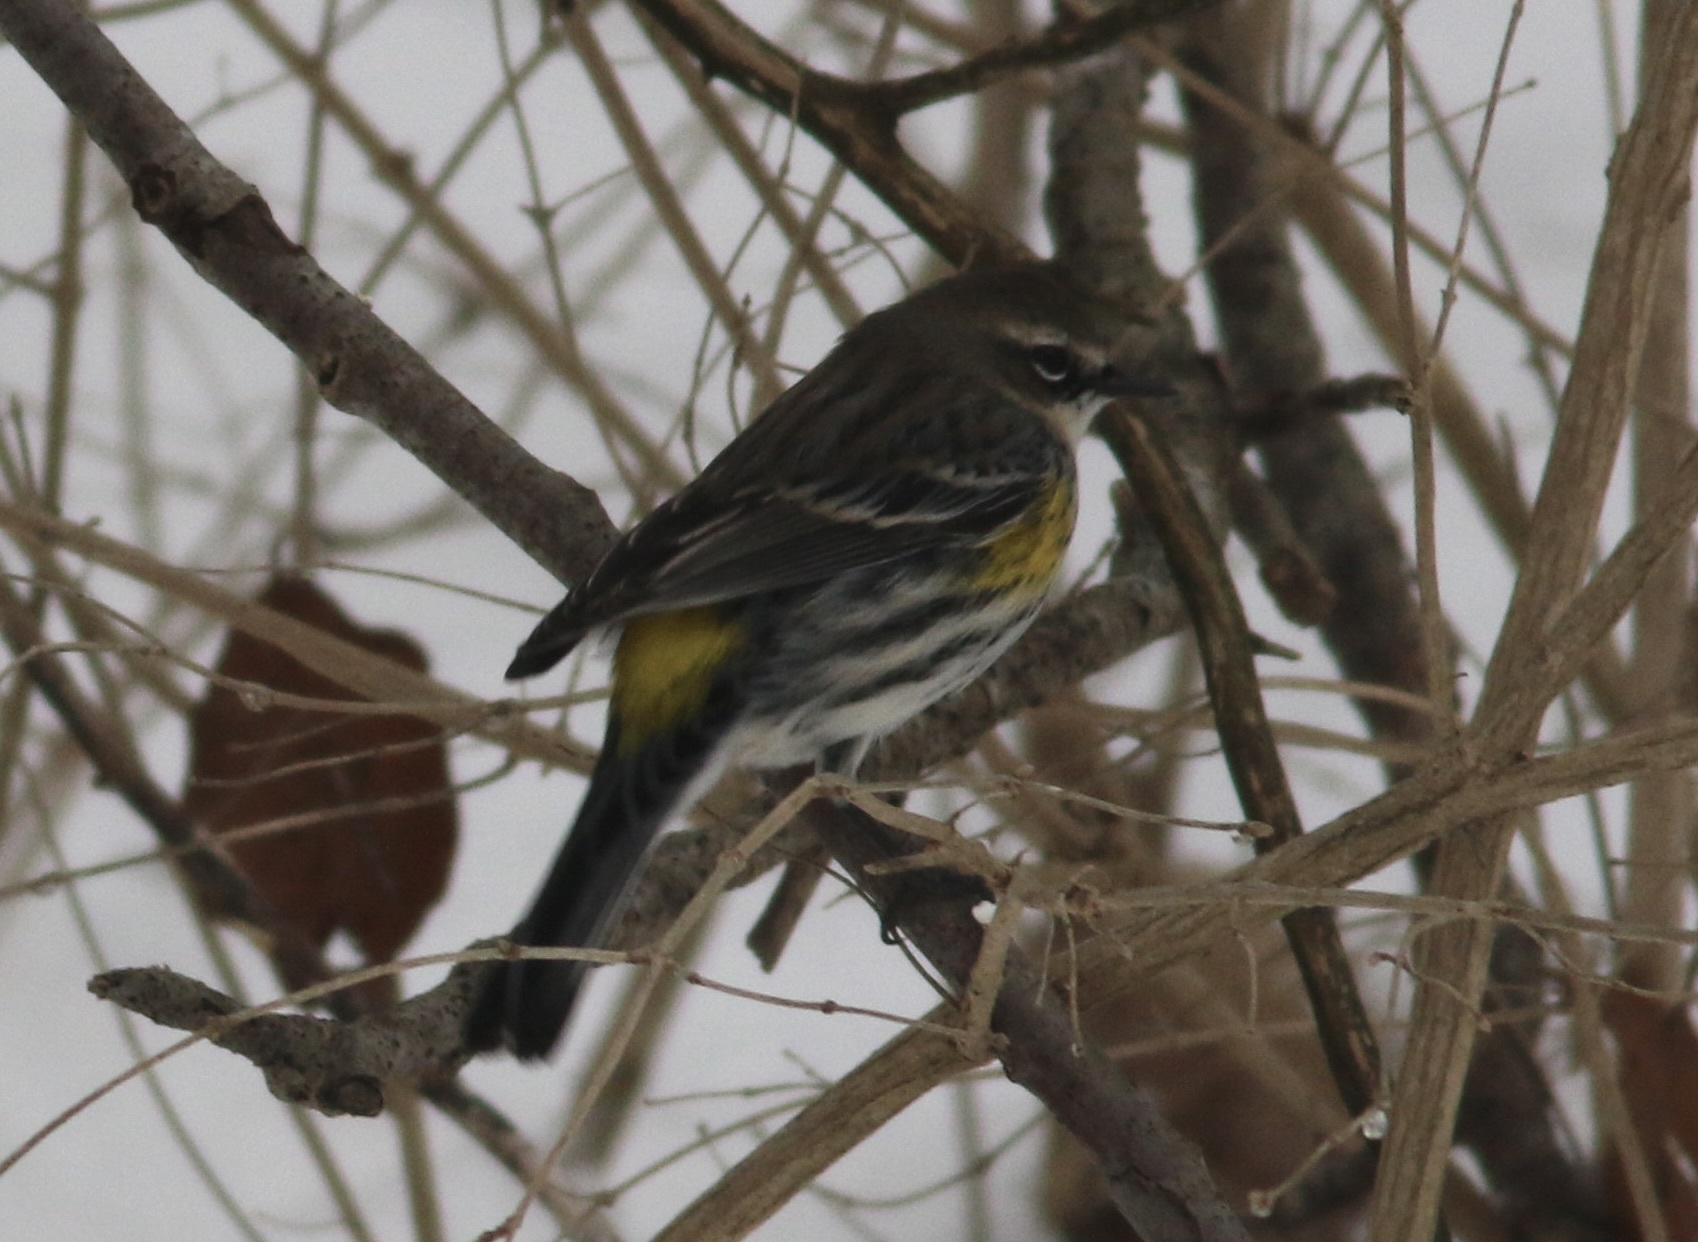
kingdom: Animalia
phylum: Chordata
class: Aves
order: Passeriformes
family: Parulidae
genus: Setophaga
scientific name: Setophaga coronata
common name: Myrtle warbler
